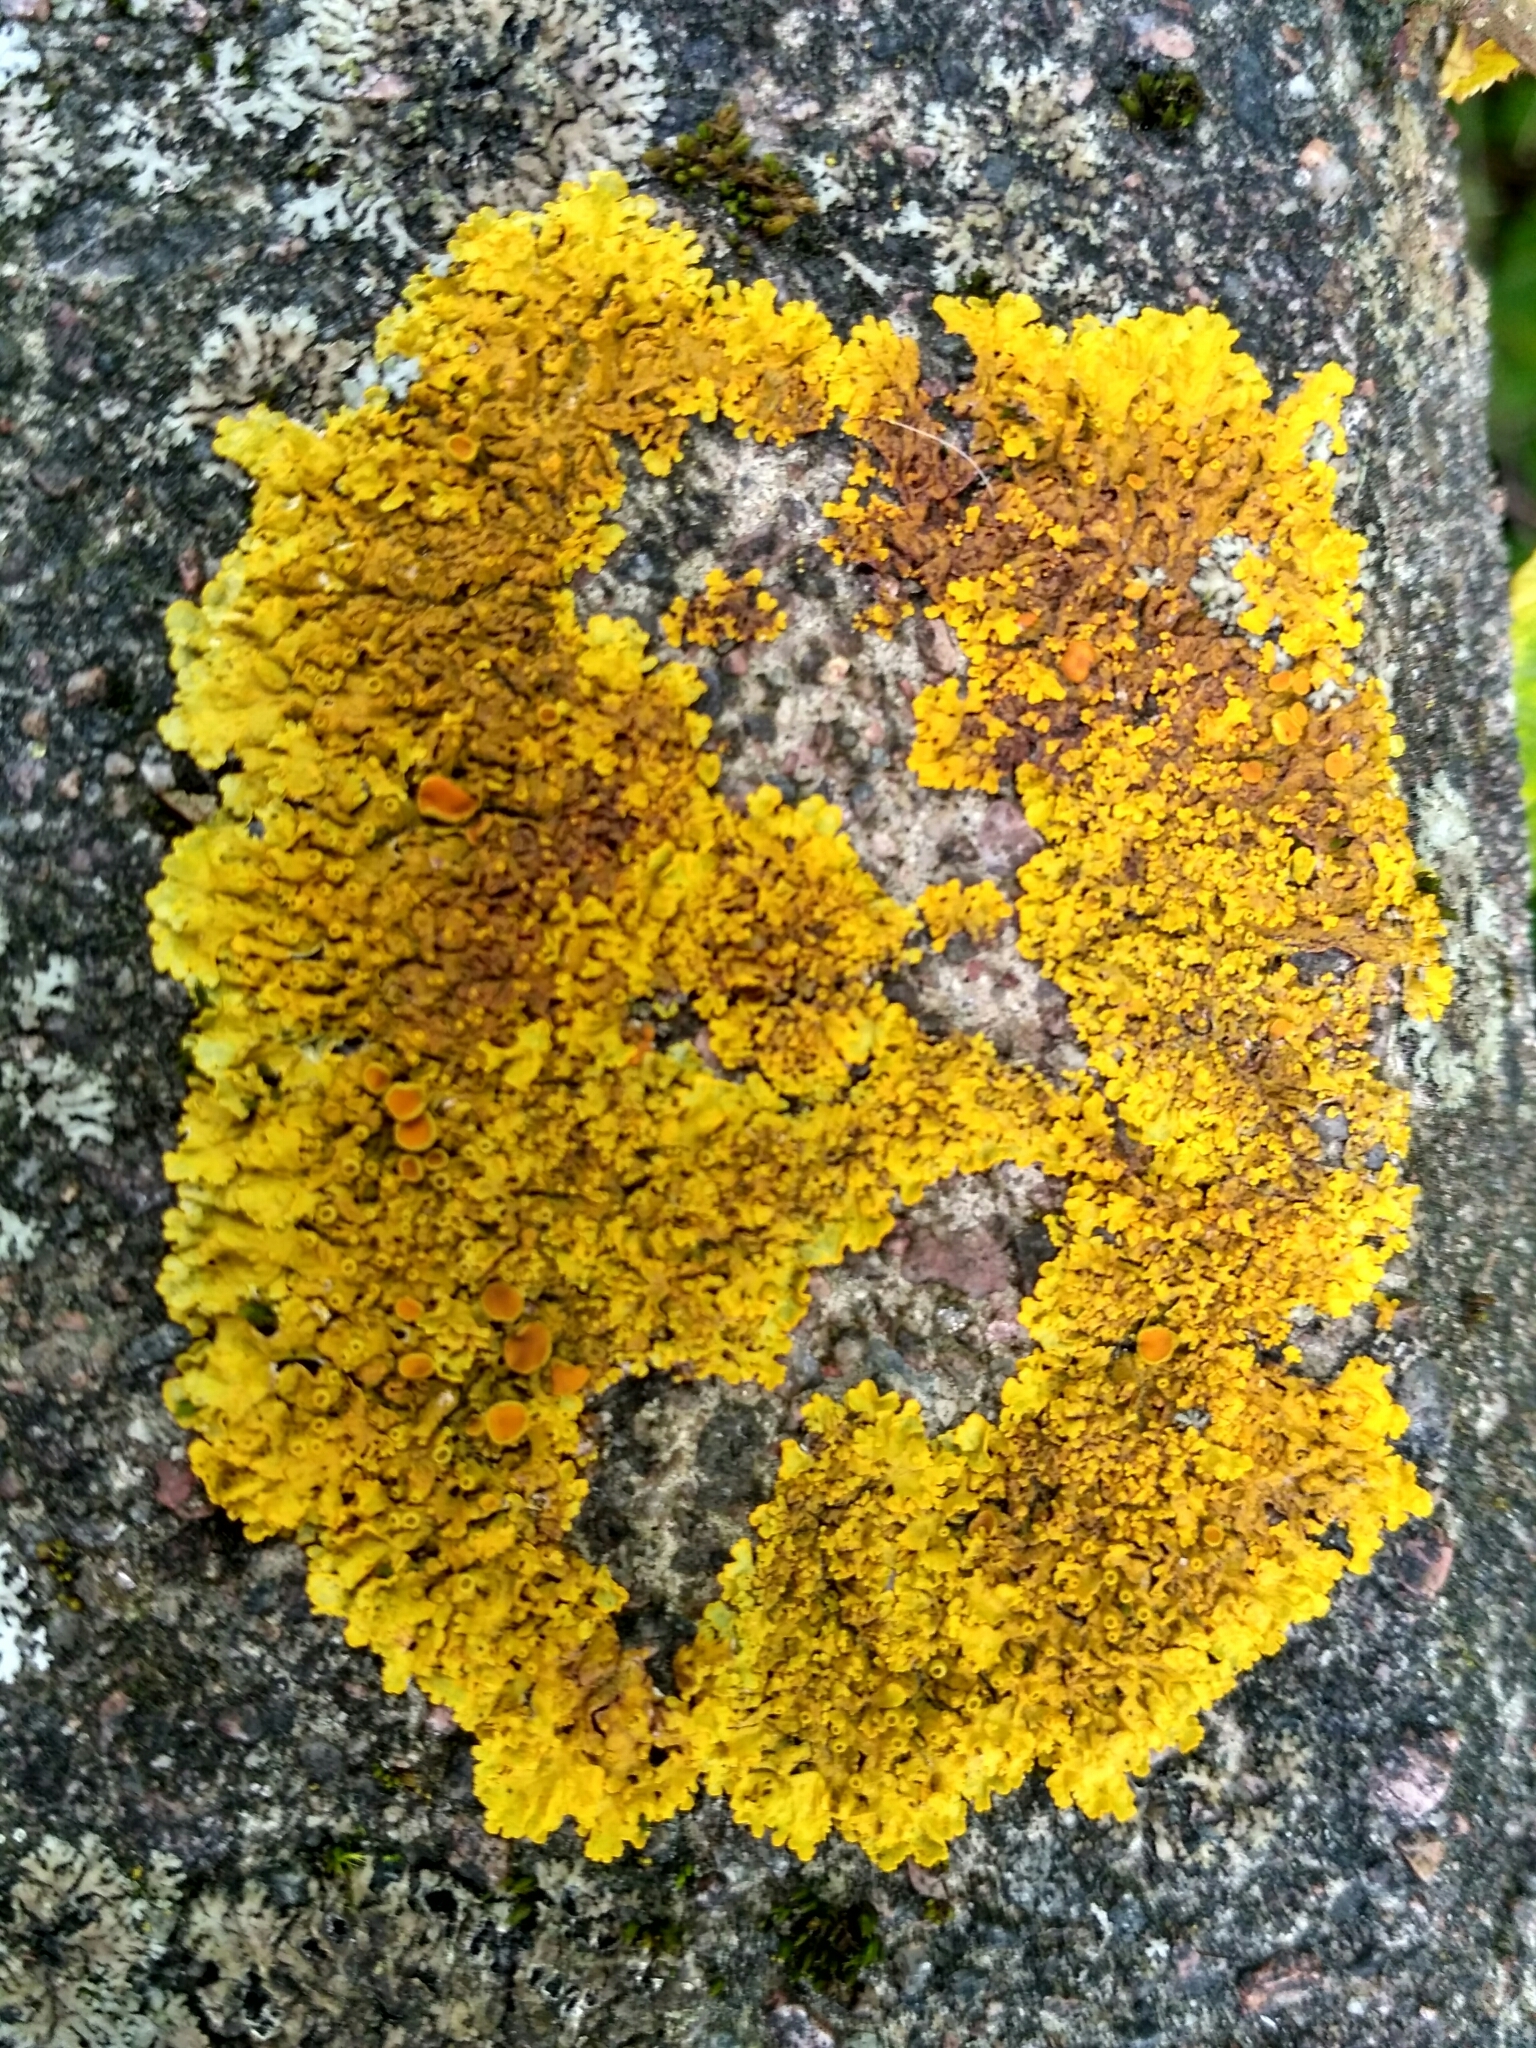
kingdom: Fungi
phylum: Ascomycota
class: Lecanoromycetes
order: Teloschistales
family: Teloschistaceae
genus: Xanthoria
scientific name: Xanthoria parietina
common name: Common orange lichen
